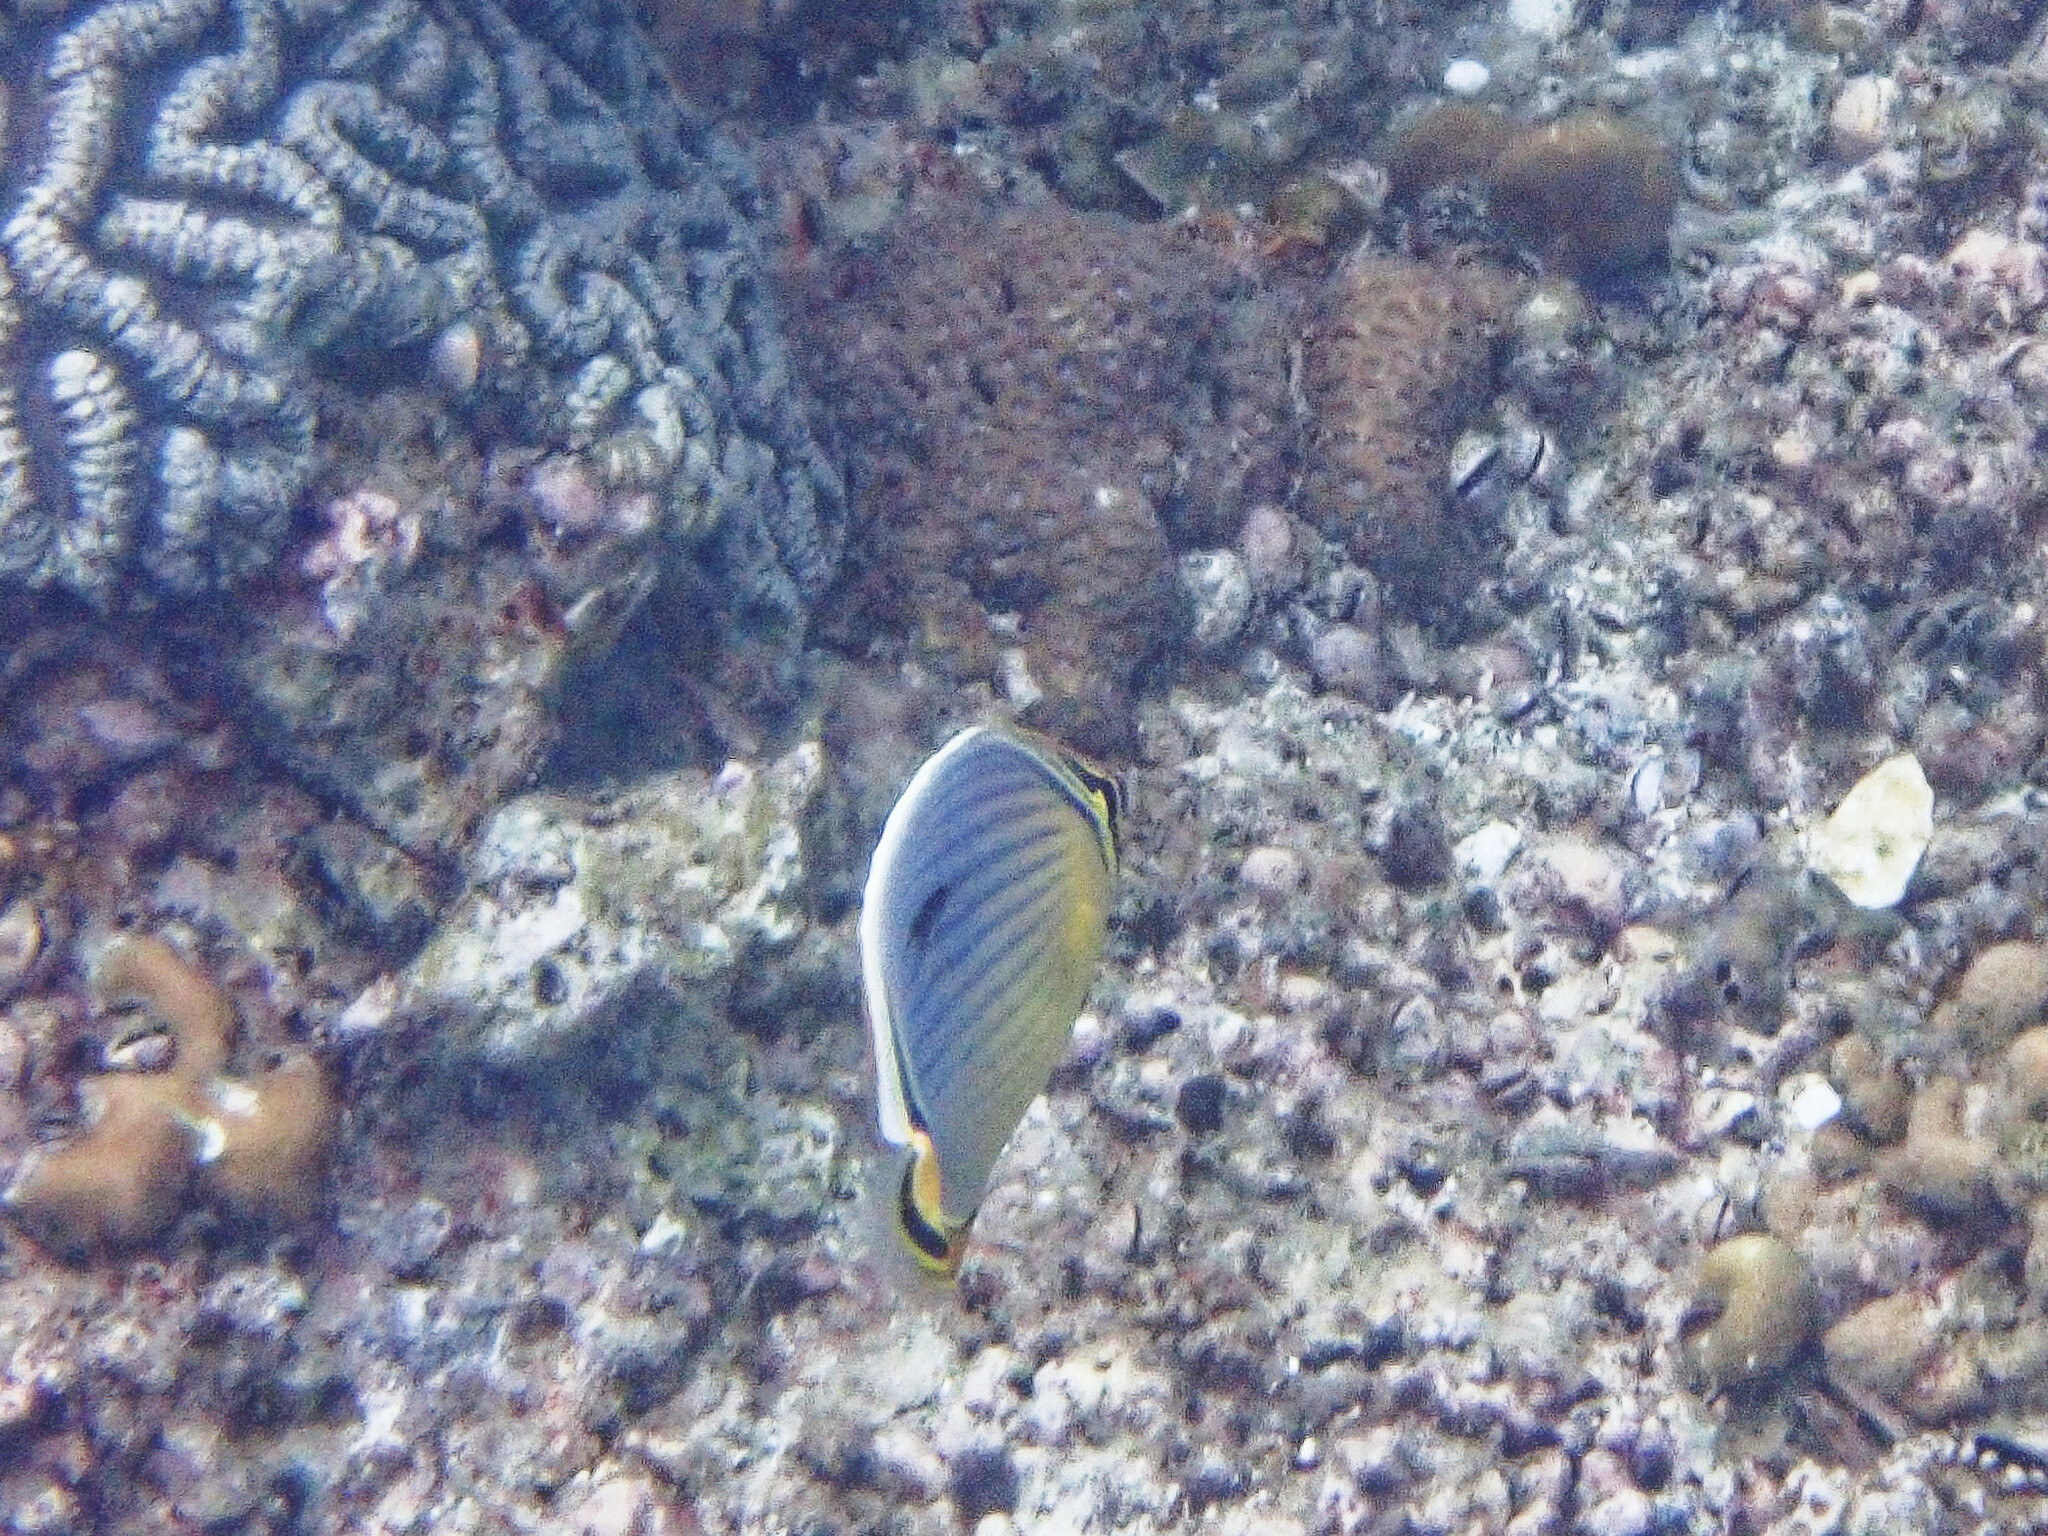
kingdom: Animalia
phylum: Chordata
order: Perciformes
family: Chaetodontidae
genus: Chaetodon
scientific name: Chaetodon trifasciatus
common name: Redfin butterflyfish
